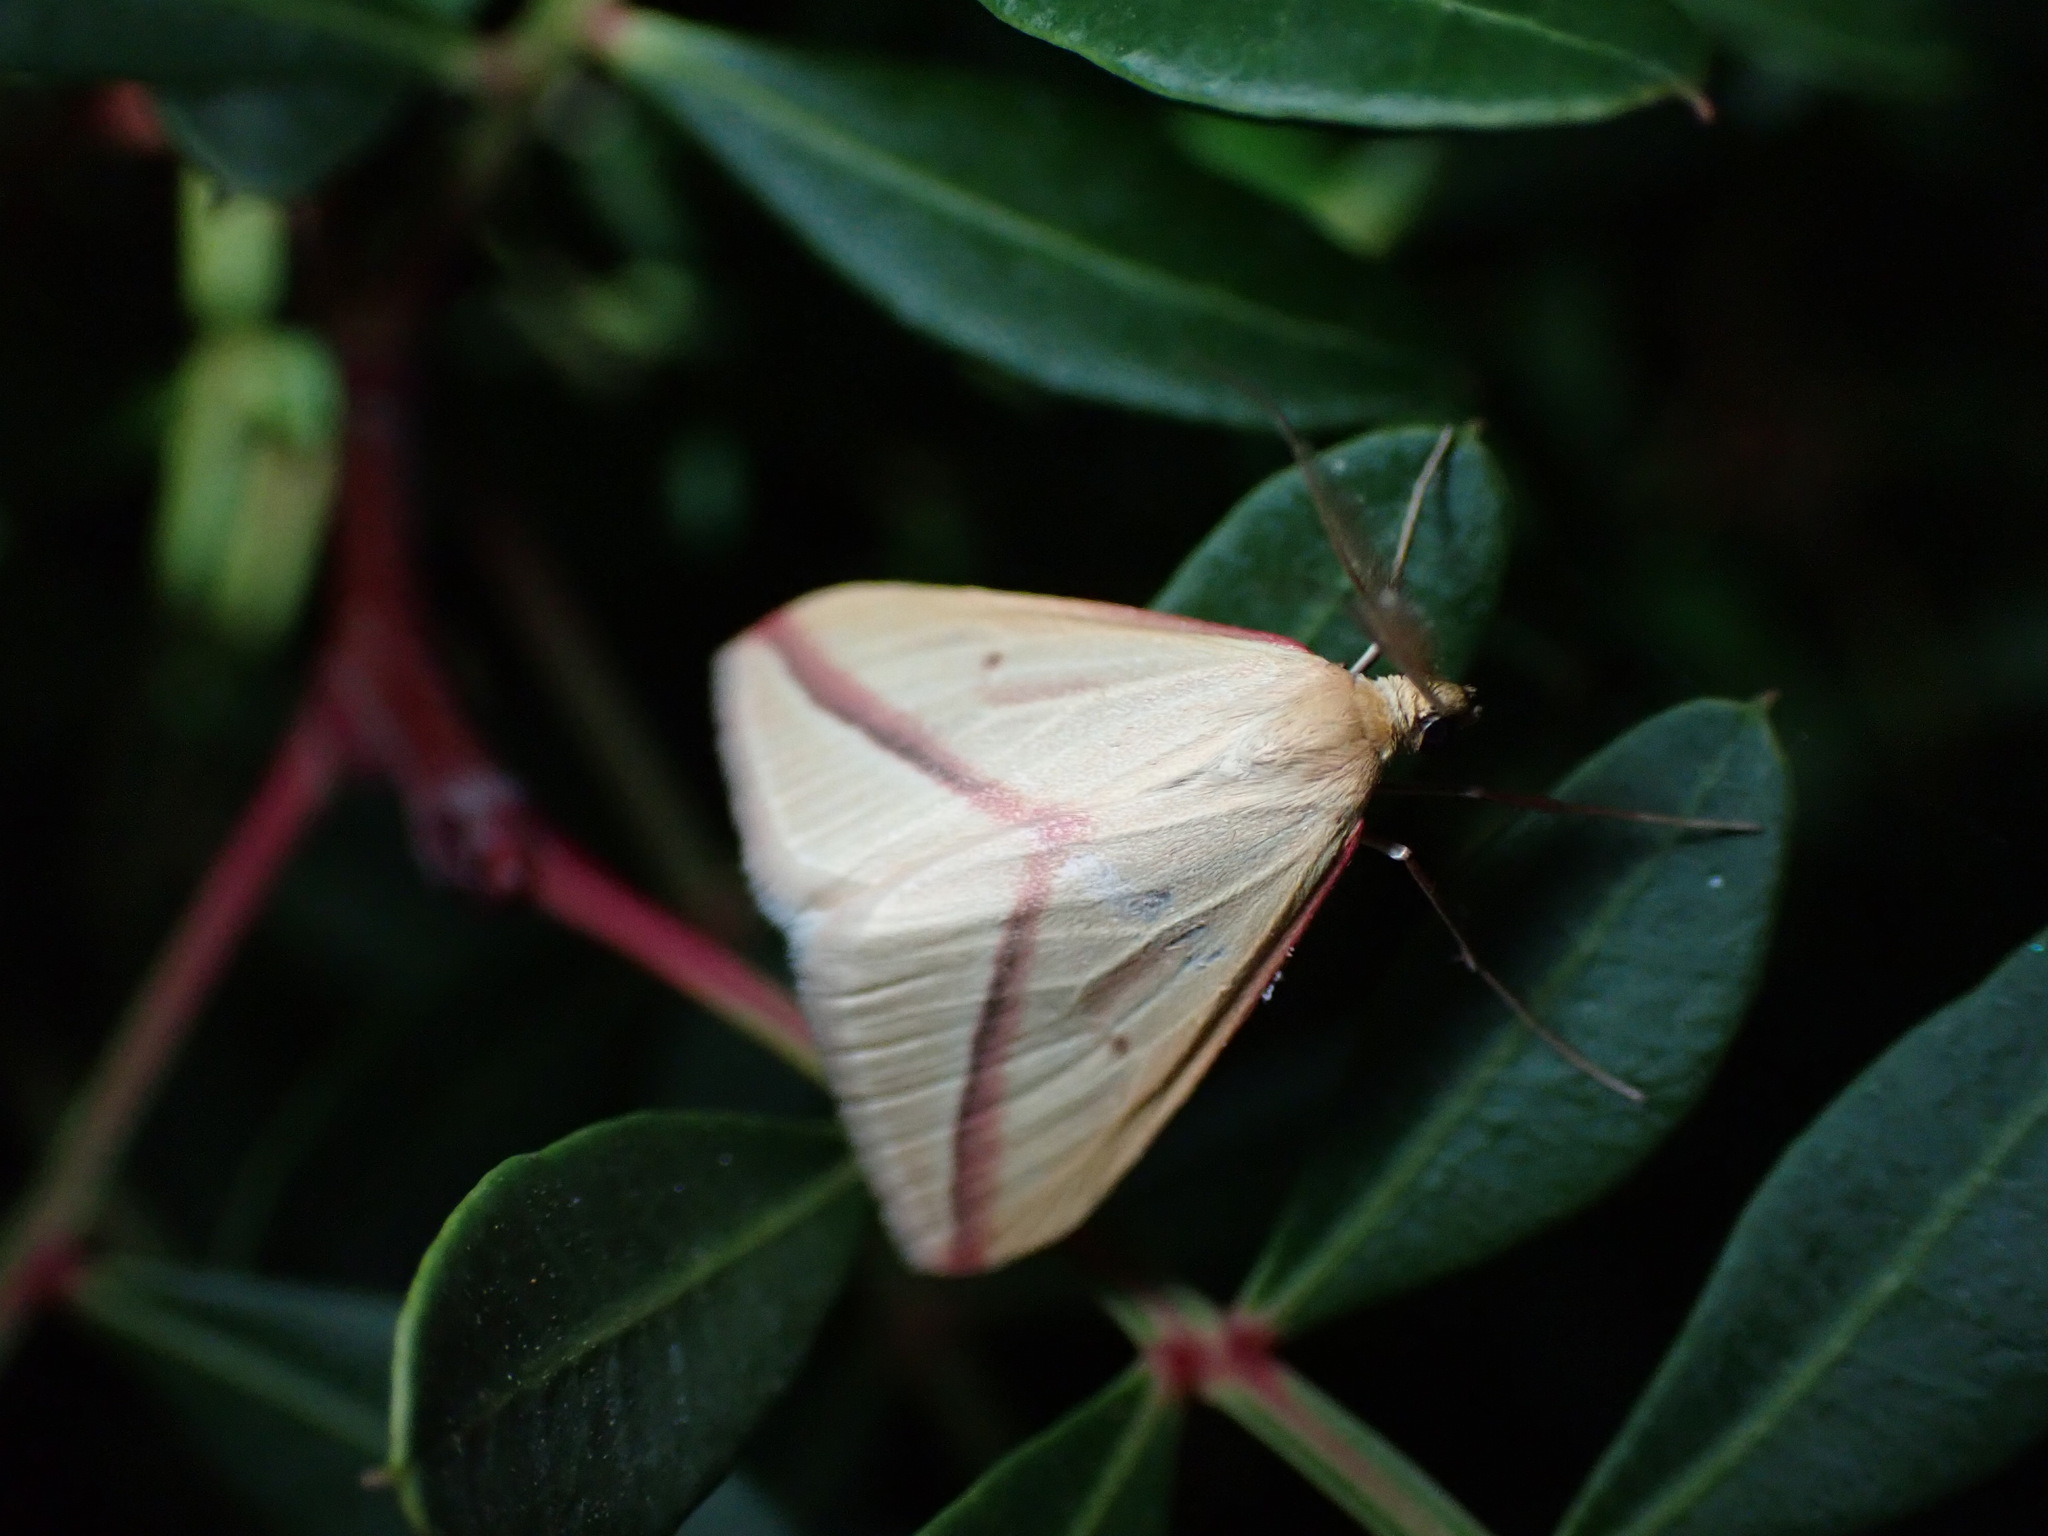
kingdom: Animalia
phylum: Arthropoda
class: Insecta
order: Lepidoptera
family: Geometridae
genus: Rhodometra
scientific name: Rhodometra sacraria
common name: Vestal
